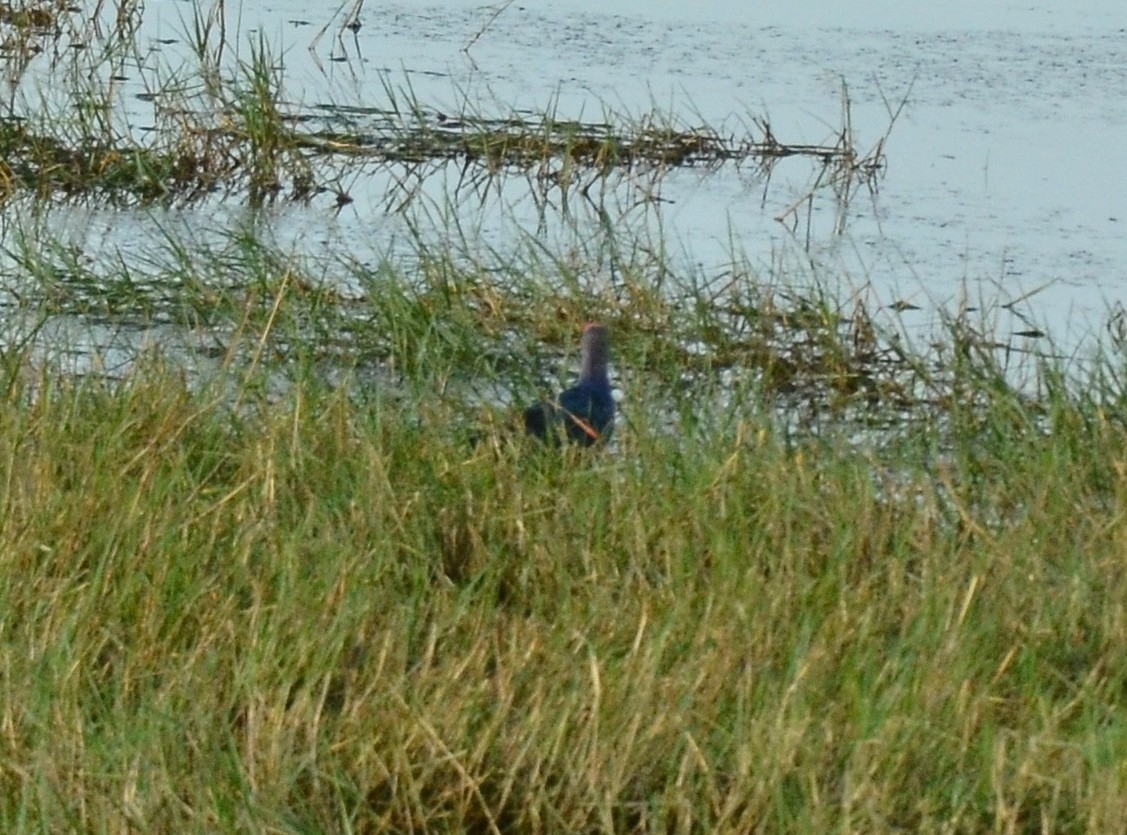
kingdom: Animalia
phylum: Chordata
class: Aves
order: Gruiformes
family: Rallidae
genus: Porphyrio
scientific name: Porphyrio porphyrio
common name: Purple swamphen
